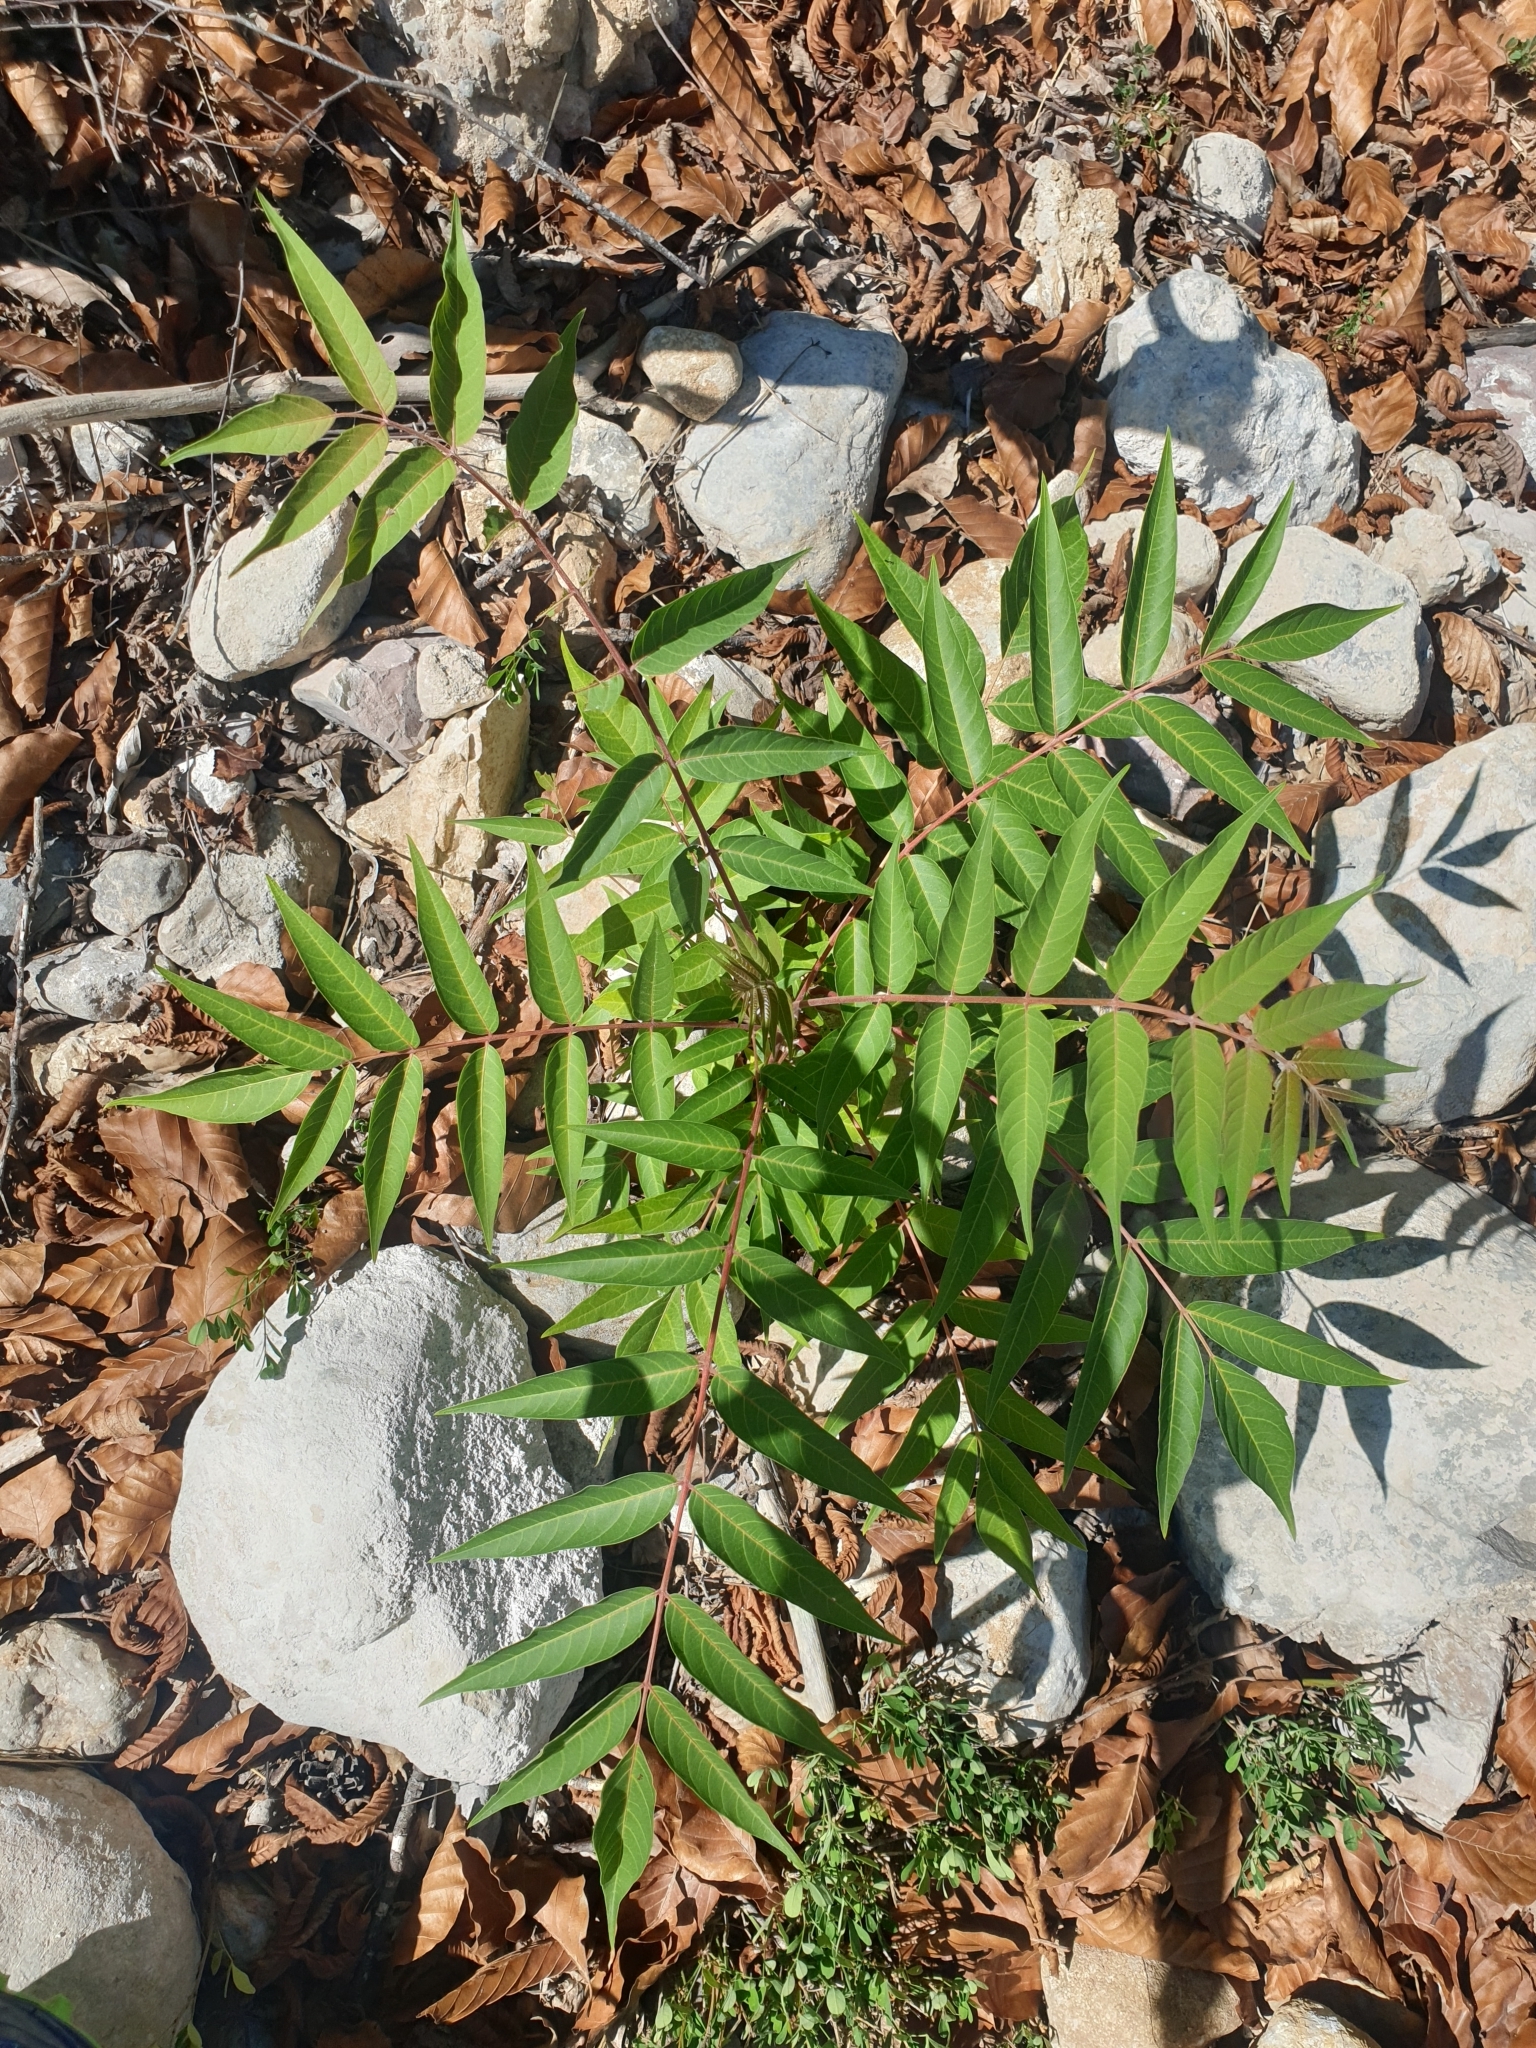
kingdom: Plantae
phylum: Tracheophyta
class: Magnoliopsida
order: Sapindales
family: Simaroubaceae
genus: Ailanthus
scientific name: Ailanthus altissima
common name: Tree-of-heaven
